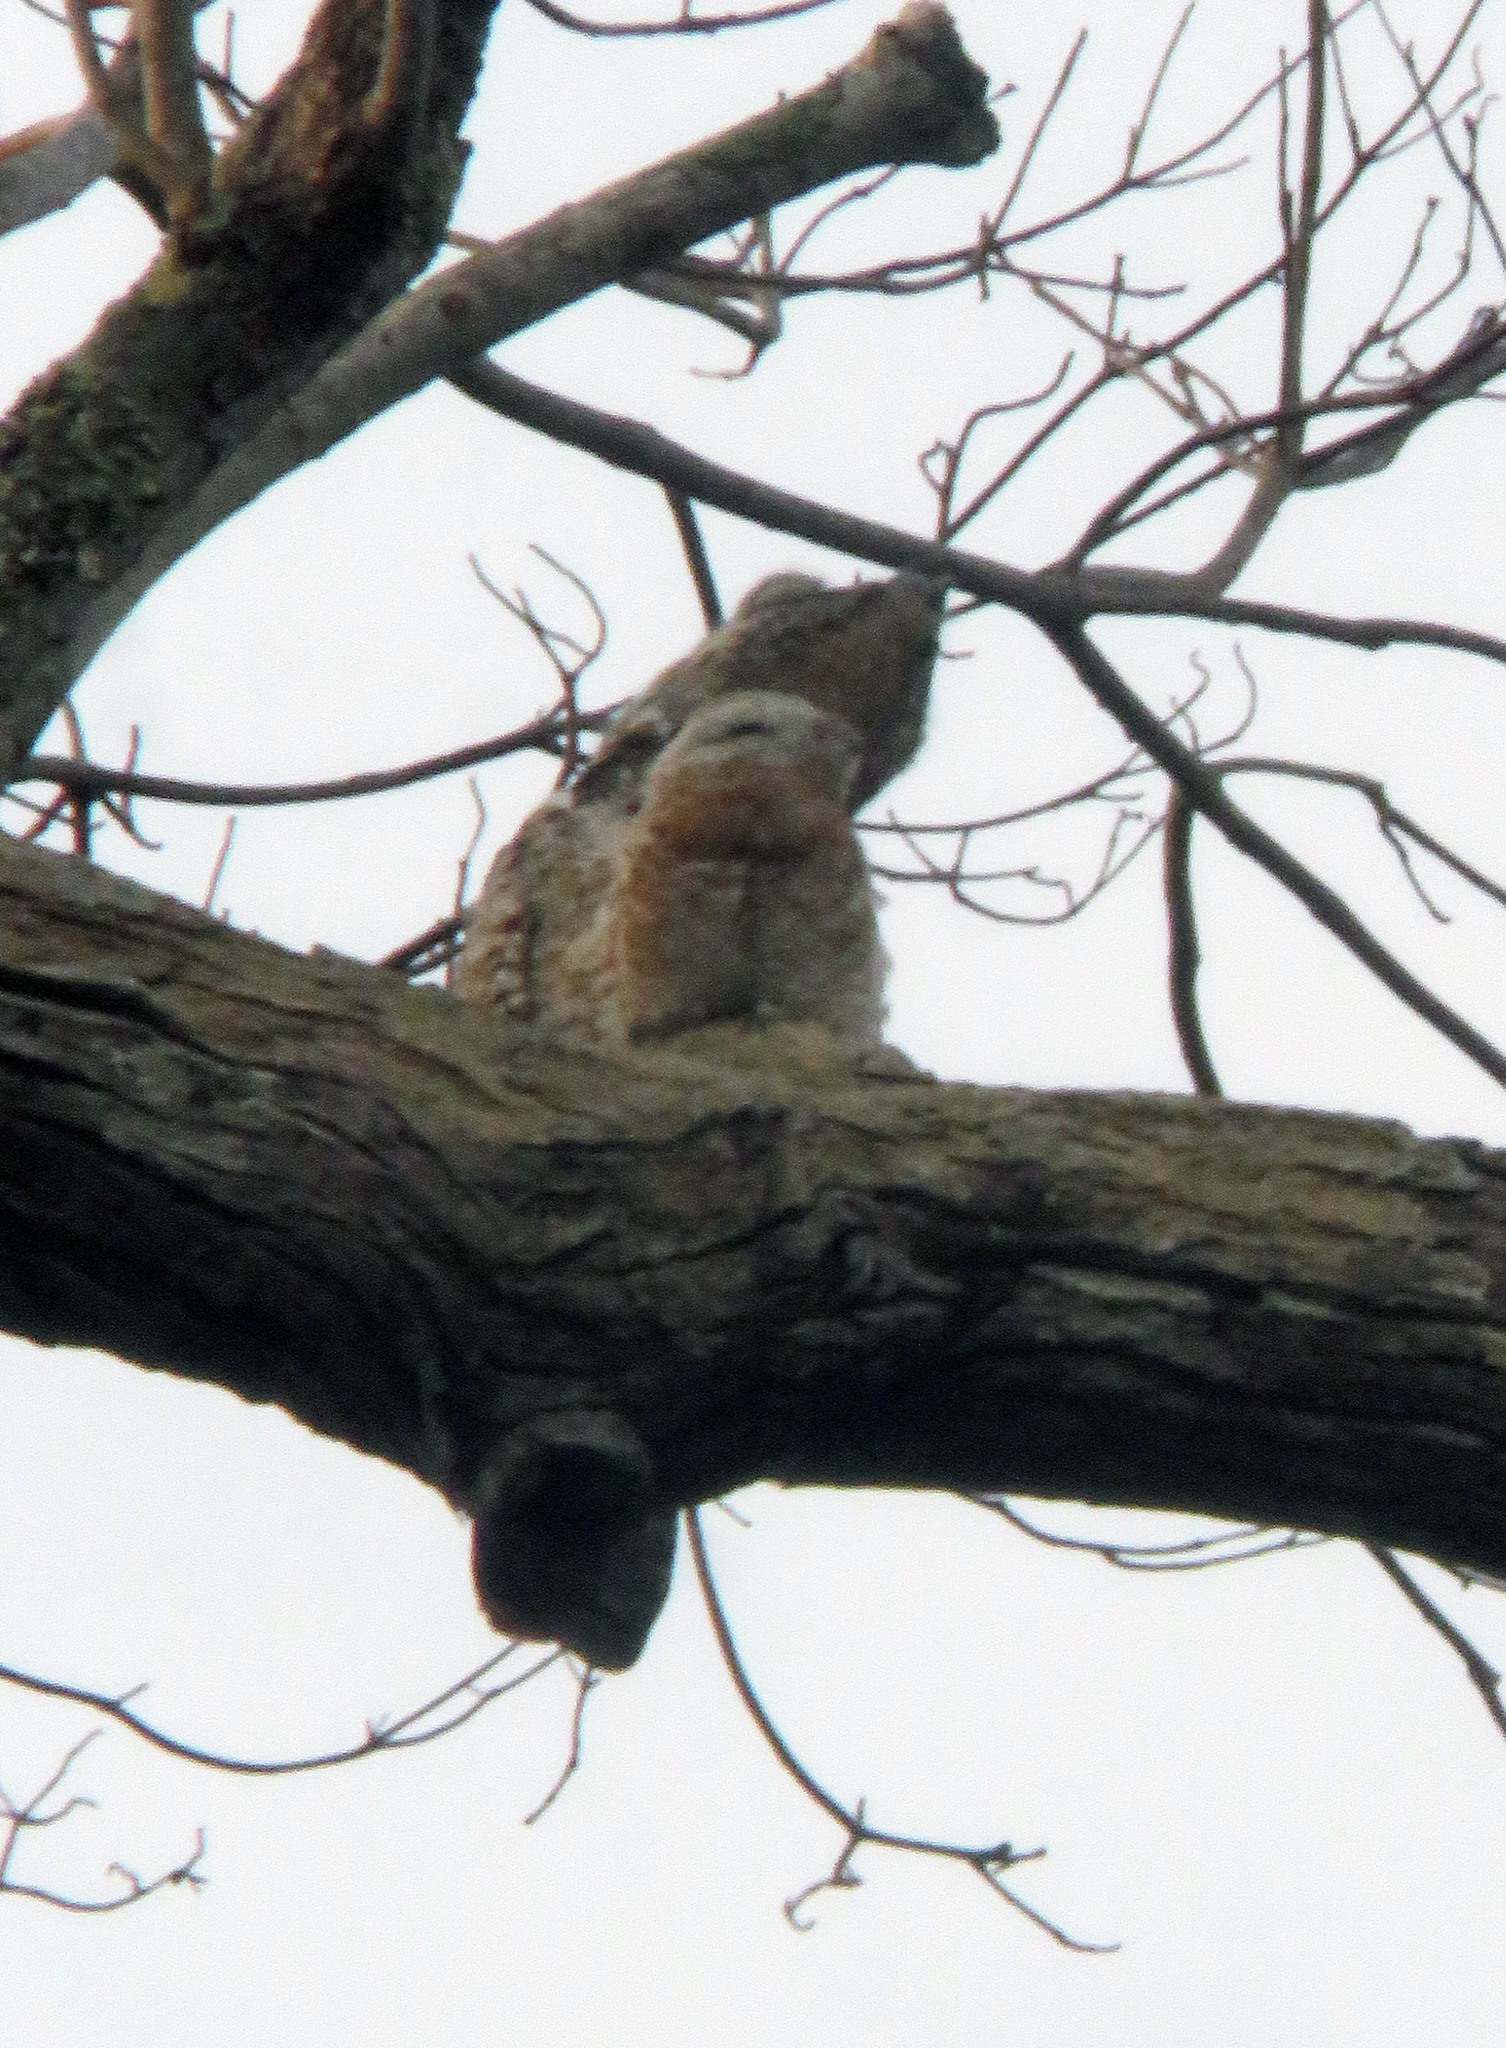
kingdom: Animalia
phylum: Chordata
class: Aves
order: Nyctibiiformes
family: Nyctibiidae
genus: Nyctibius
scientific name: Nyctibius grandis
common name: Great potoo
